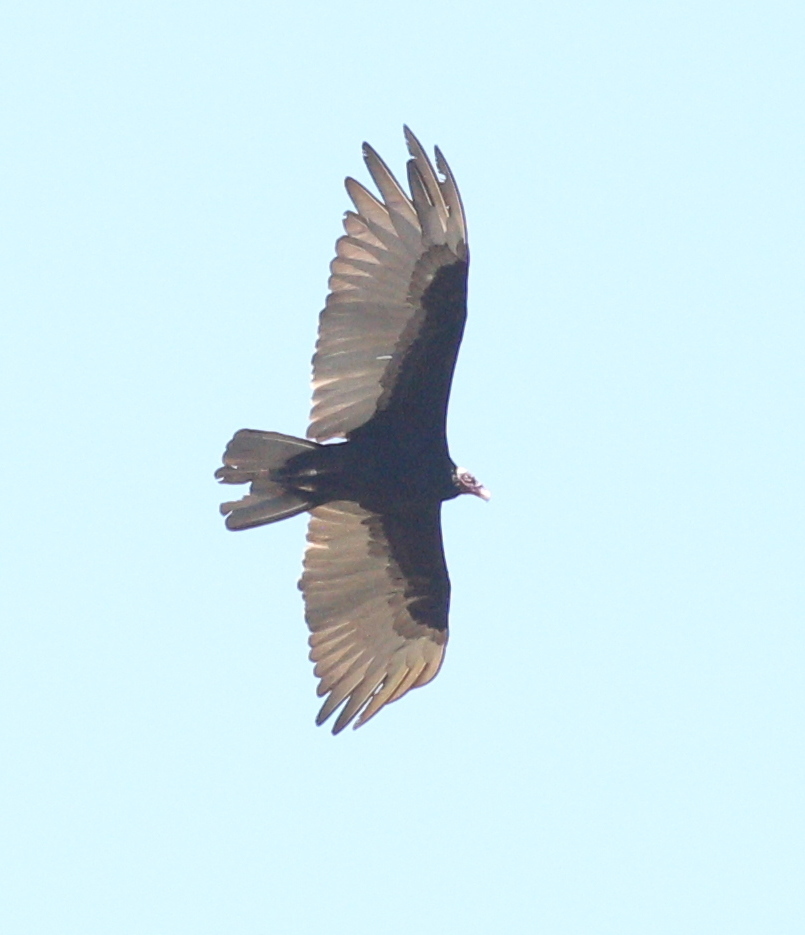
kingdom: Animalia
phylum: Chordata
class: Aves
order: Accipitriformes
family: Cathartidae
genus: Cathartes
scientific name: Cathartes aura
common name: Turkey vulture
